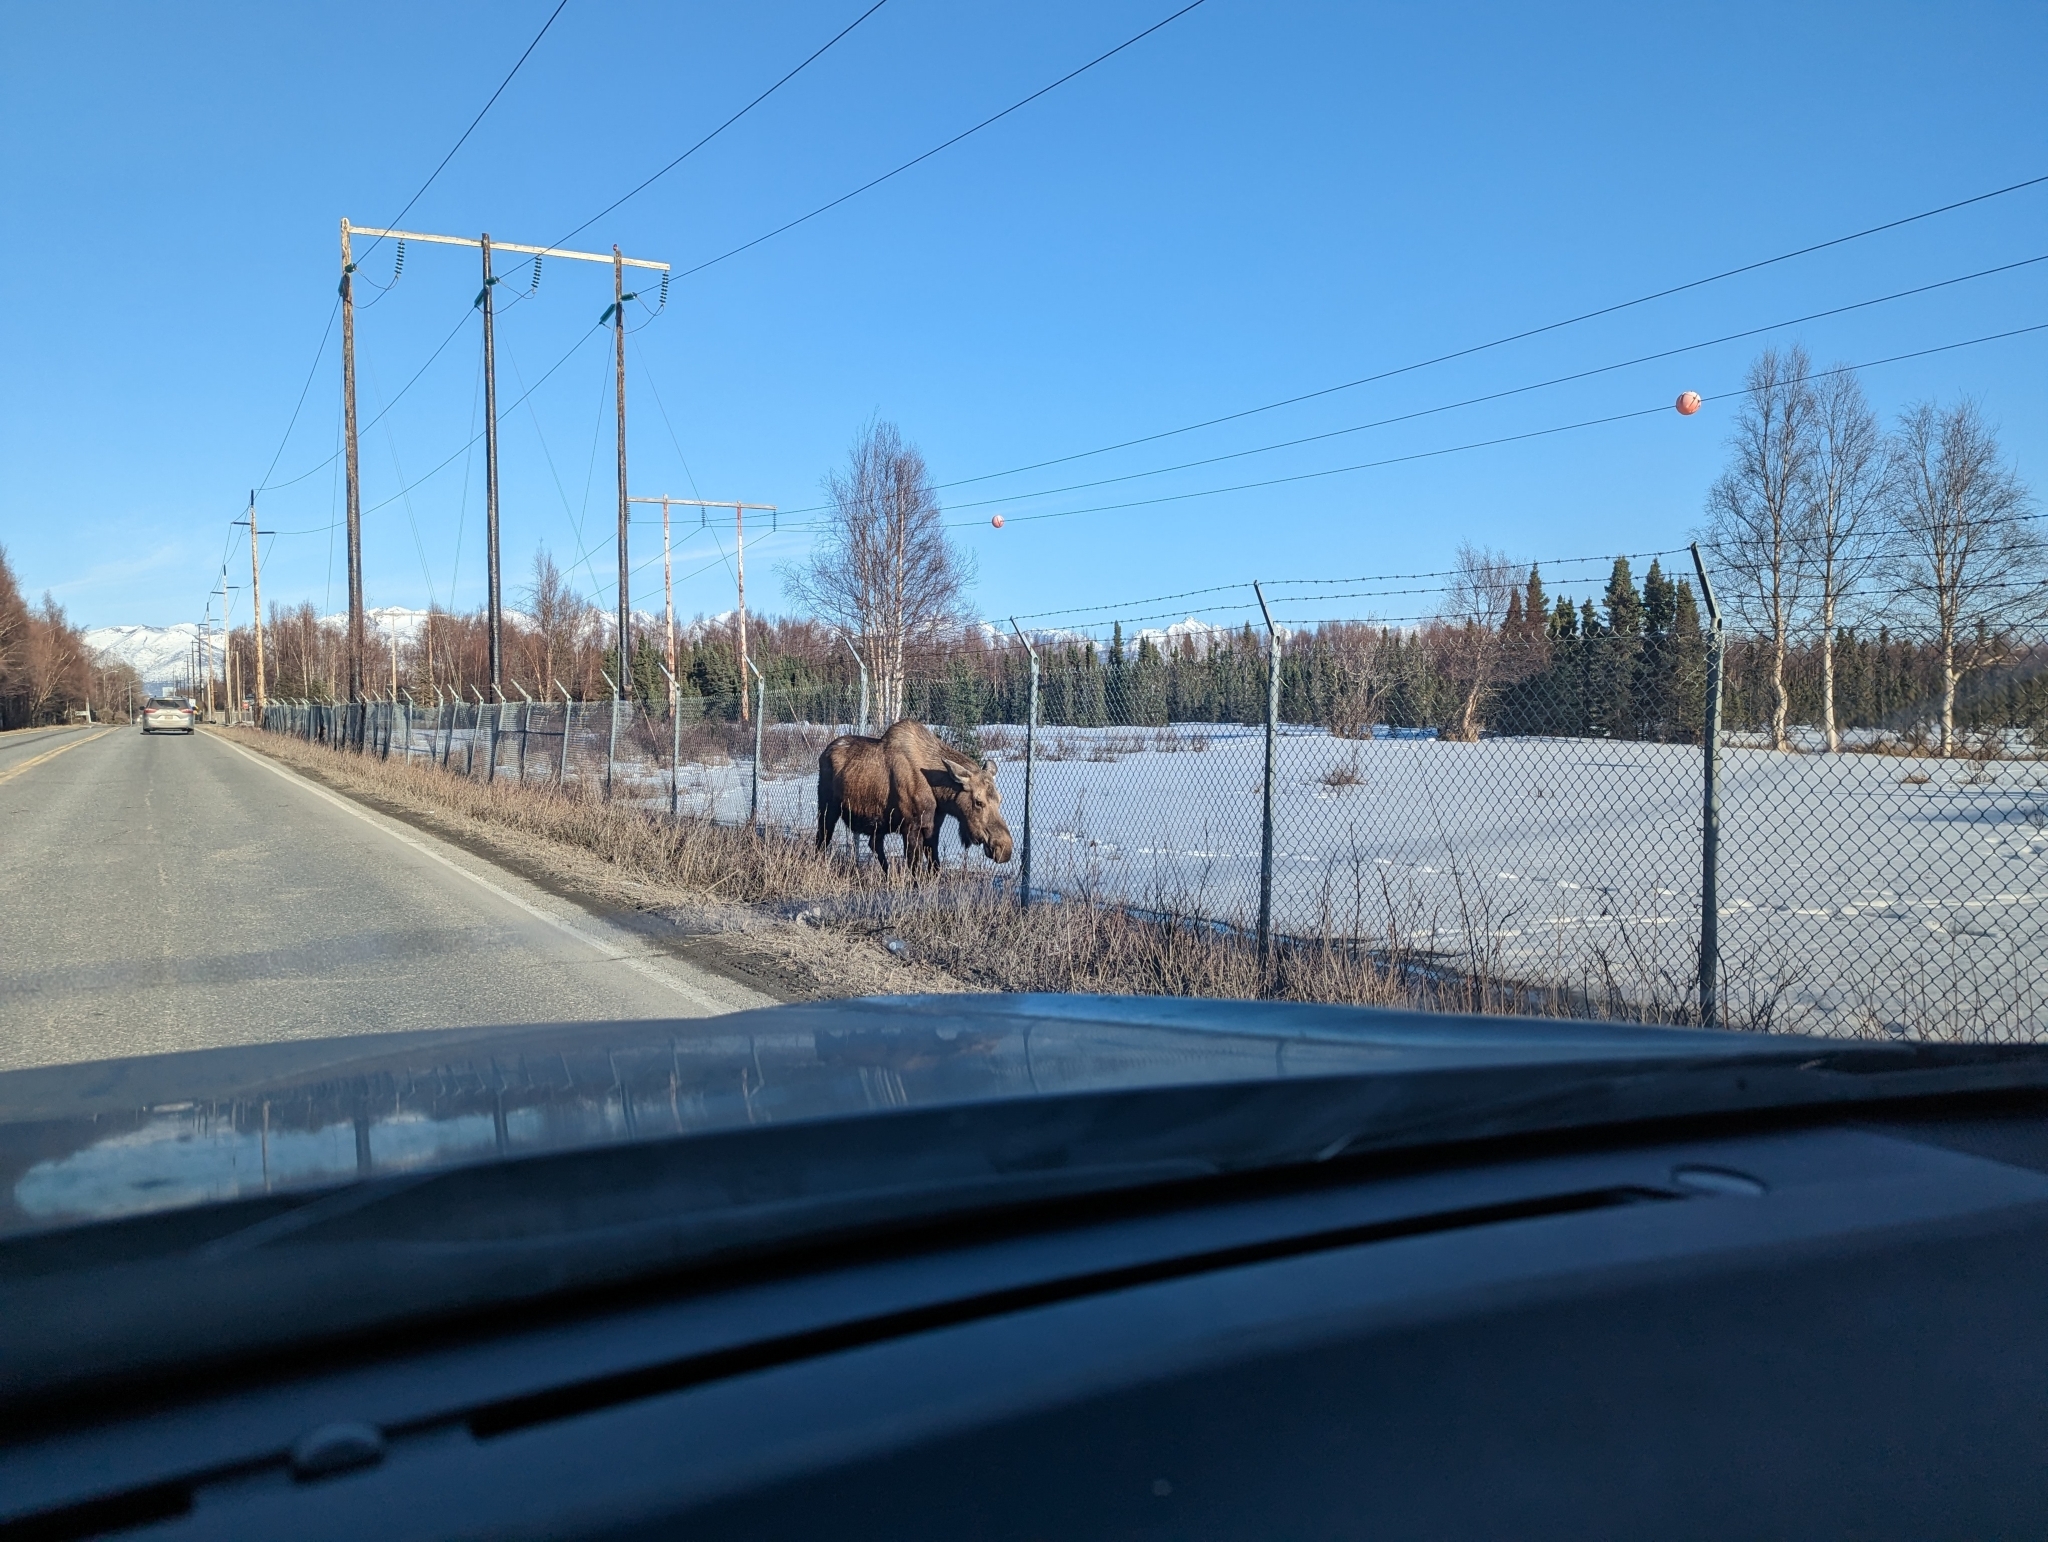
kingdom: Animalia
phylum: Chordata
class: Mammalia
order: Artiodactyla
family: Cervidae
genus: Alces
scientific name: Alces alces
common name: Moose
